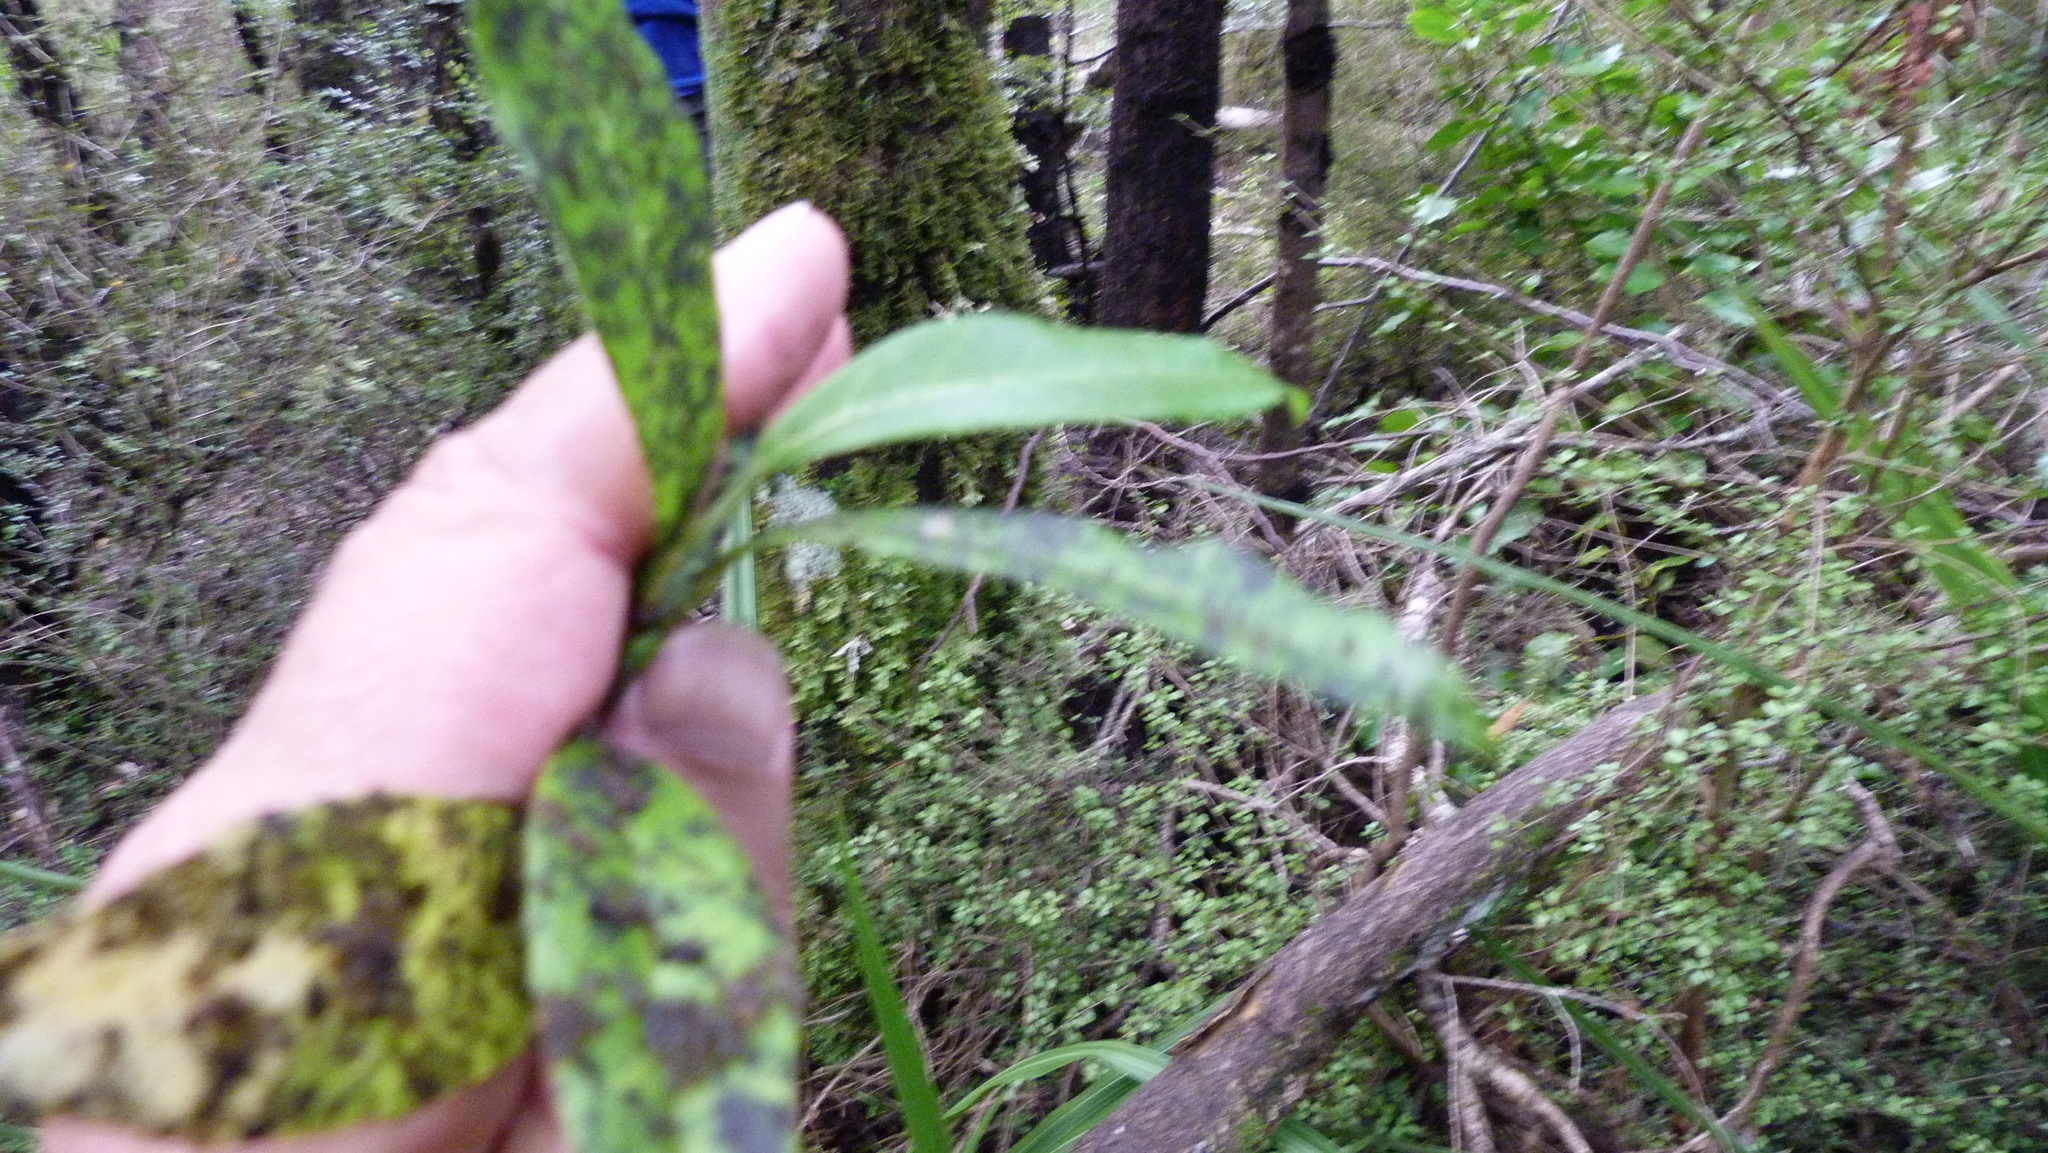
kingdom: Plantae
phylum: Tracheophyta
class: Magnoliopsida
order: Rosales
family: Rosaceae
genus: Prunus
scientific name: Prunus laurocerasus
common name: Cherry laurel
